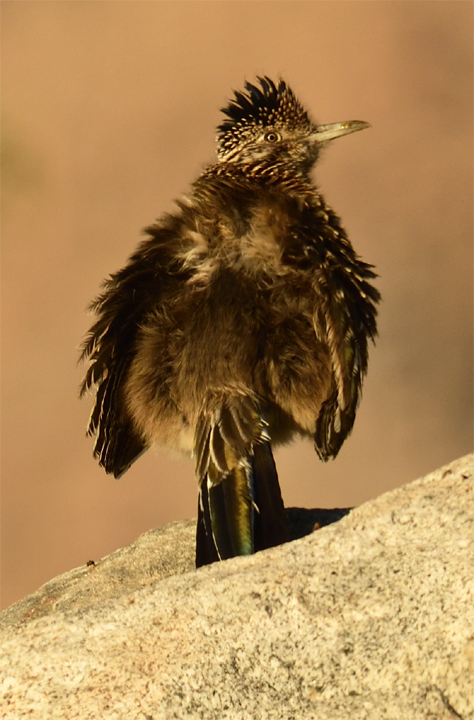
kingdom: Animalia
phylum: Chordata
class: Aves
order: Cuculiformes
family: Cuculidae
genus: Geococcyx
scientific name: Geococcyx californianus
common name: Greater roadrunner
